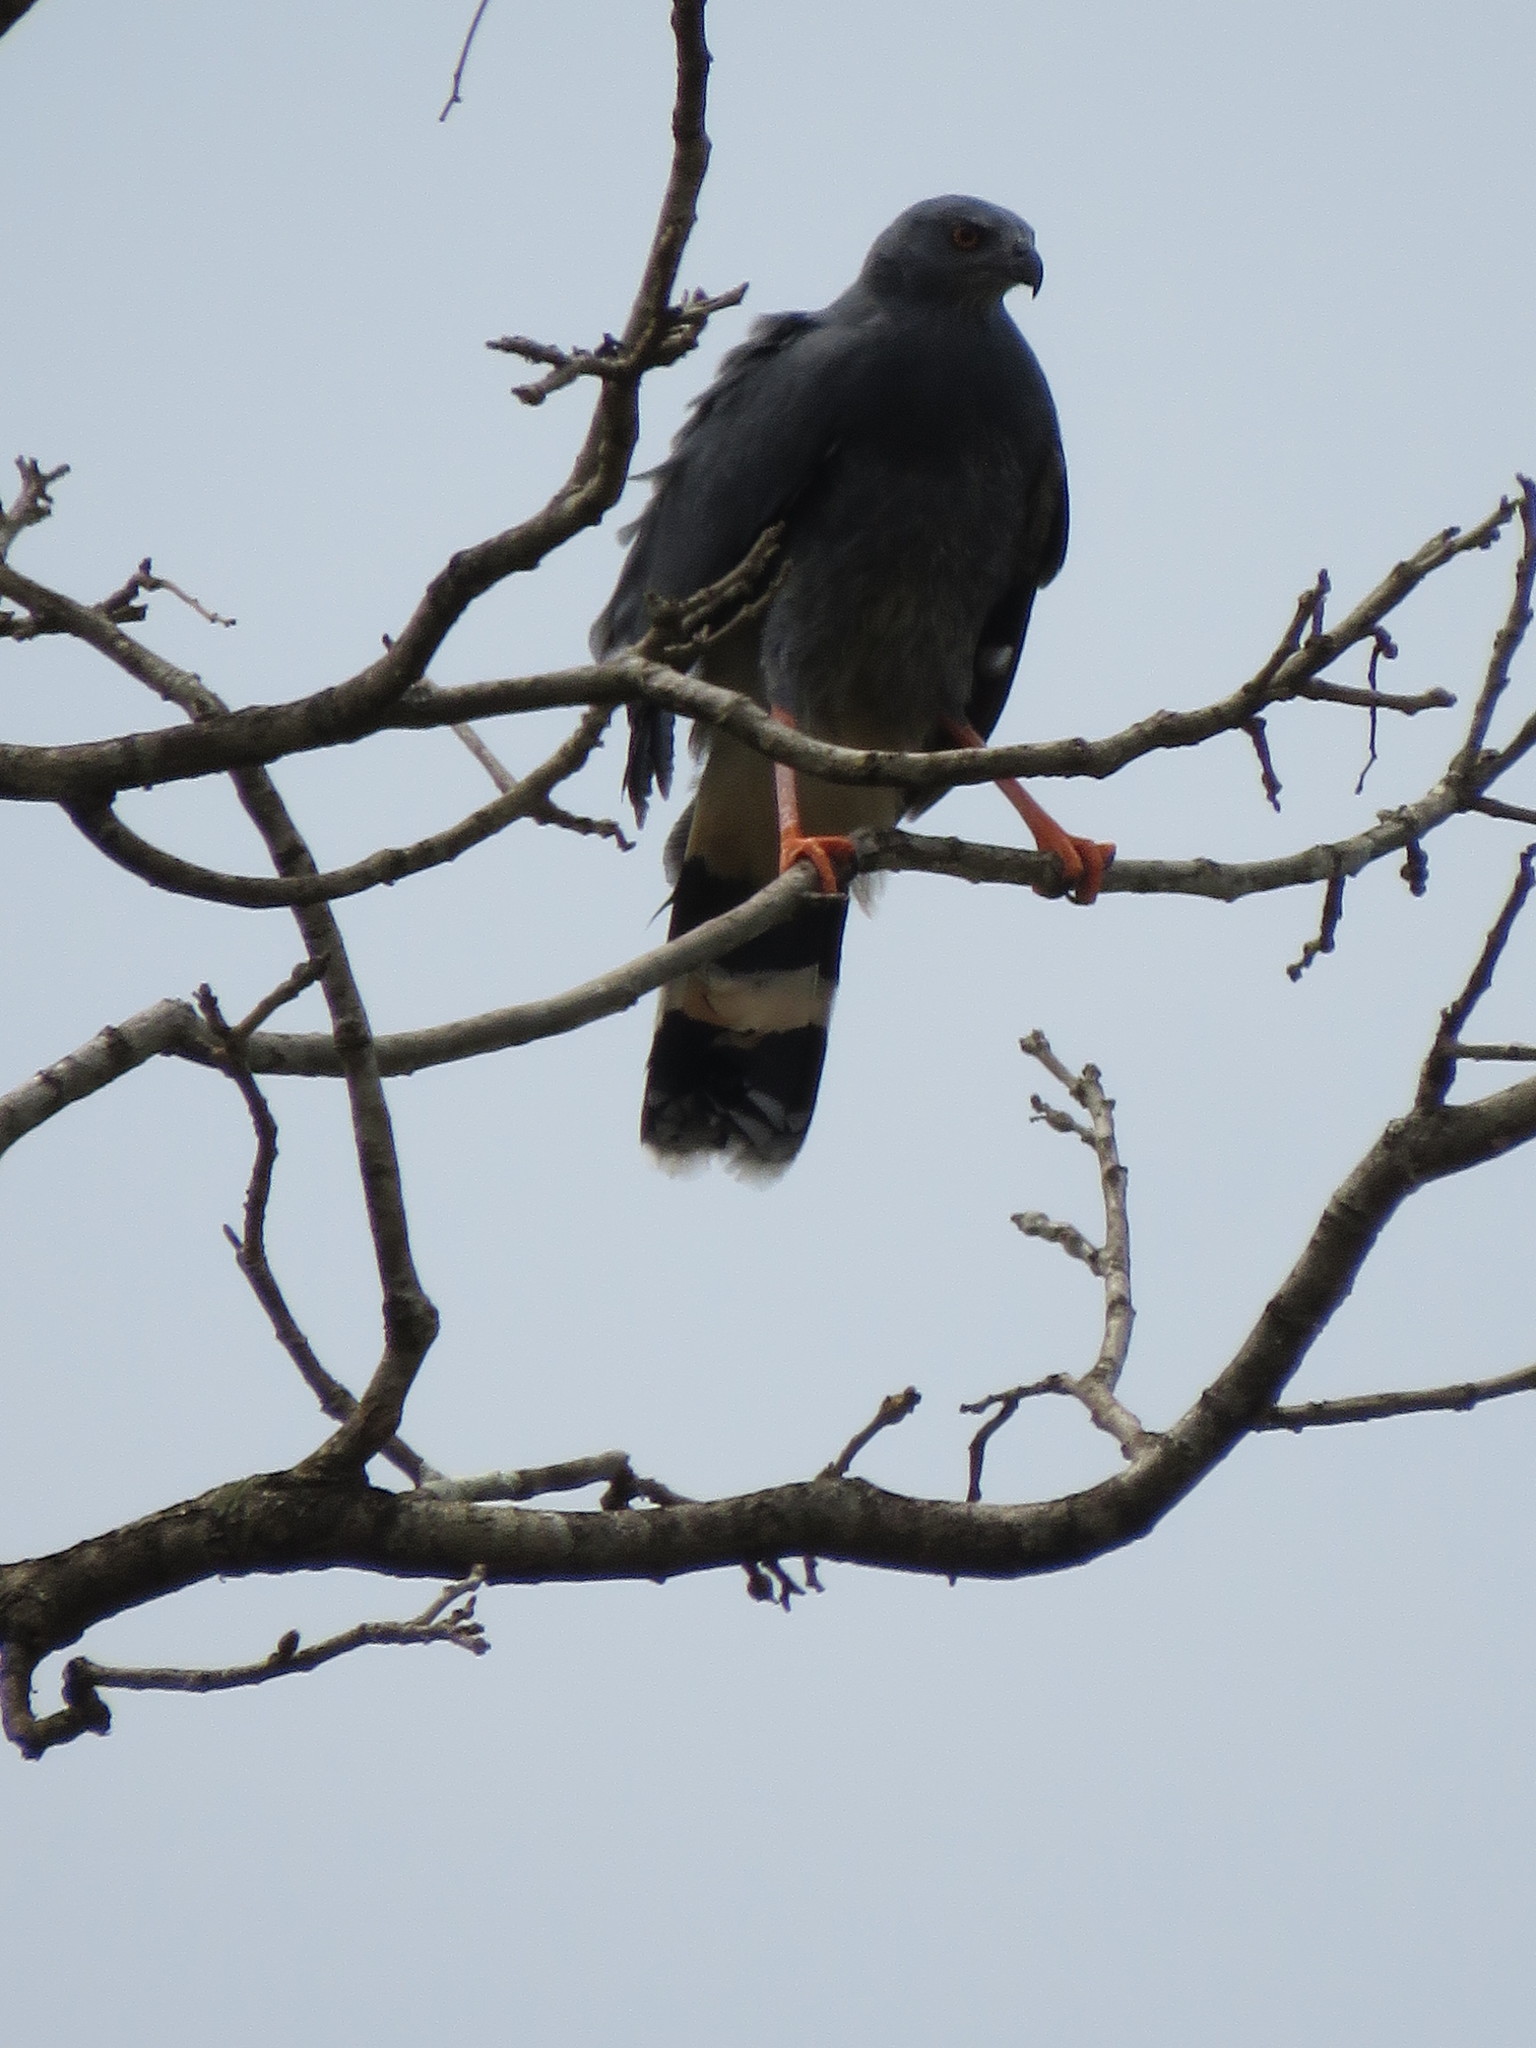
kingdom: Animalia
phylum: Chordata
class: Aves
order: Accipitriformes
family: Accipitridae
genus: Geranospiza
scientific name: Geranospiza caerulescens
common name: Crane hawk
